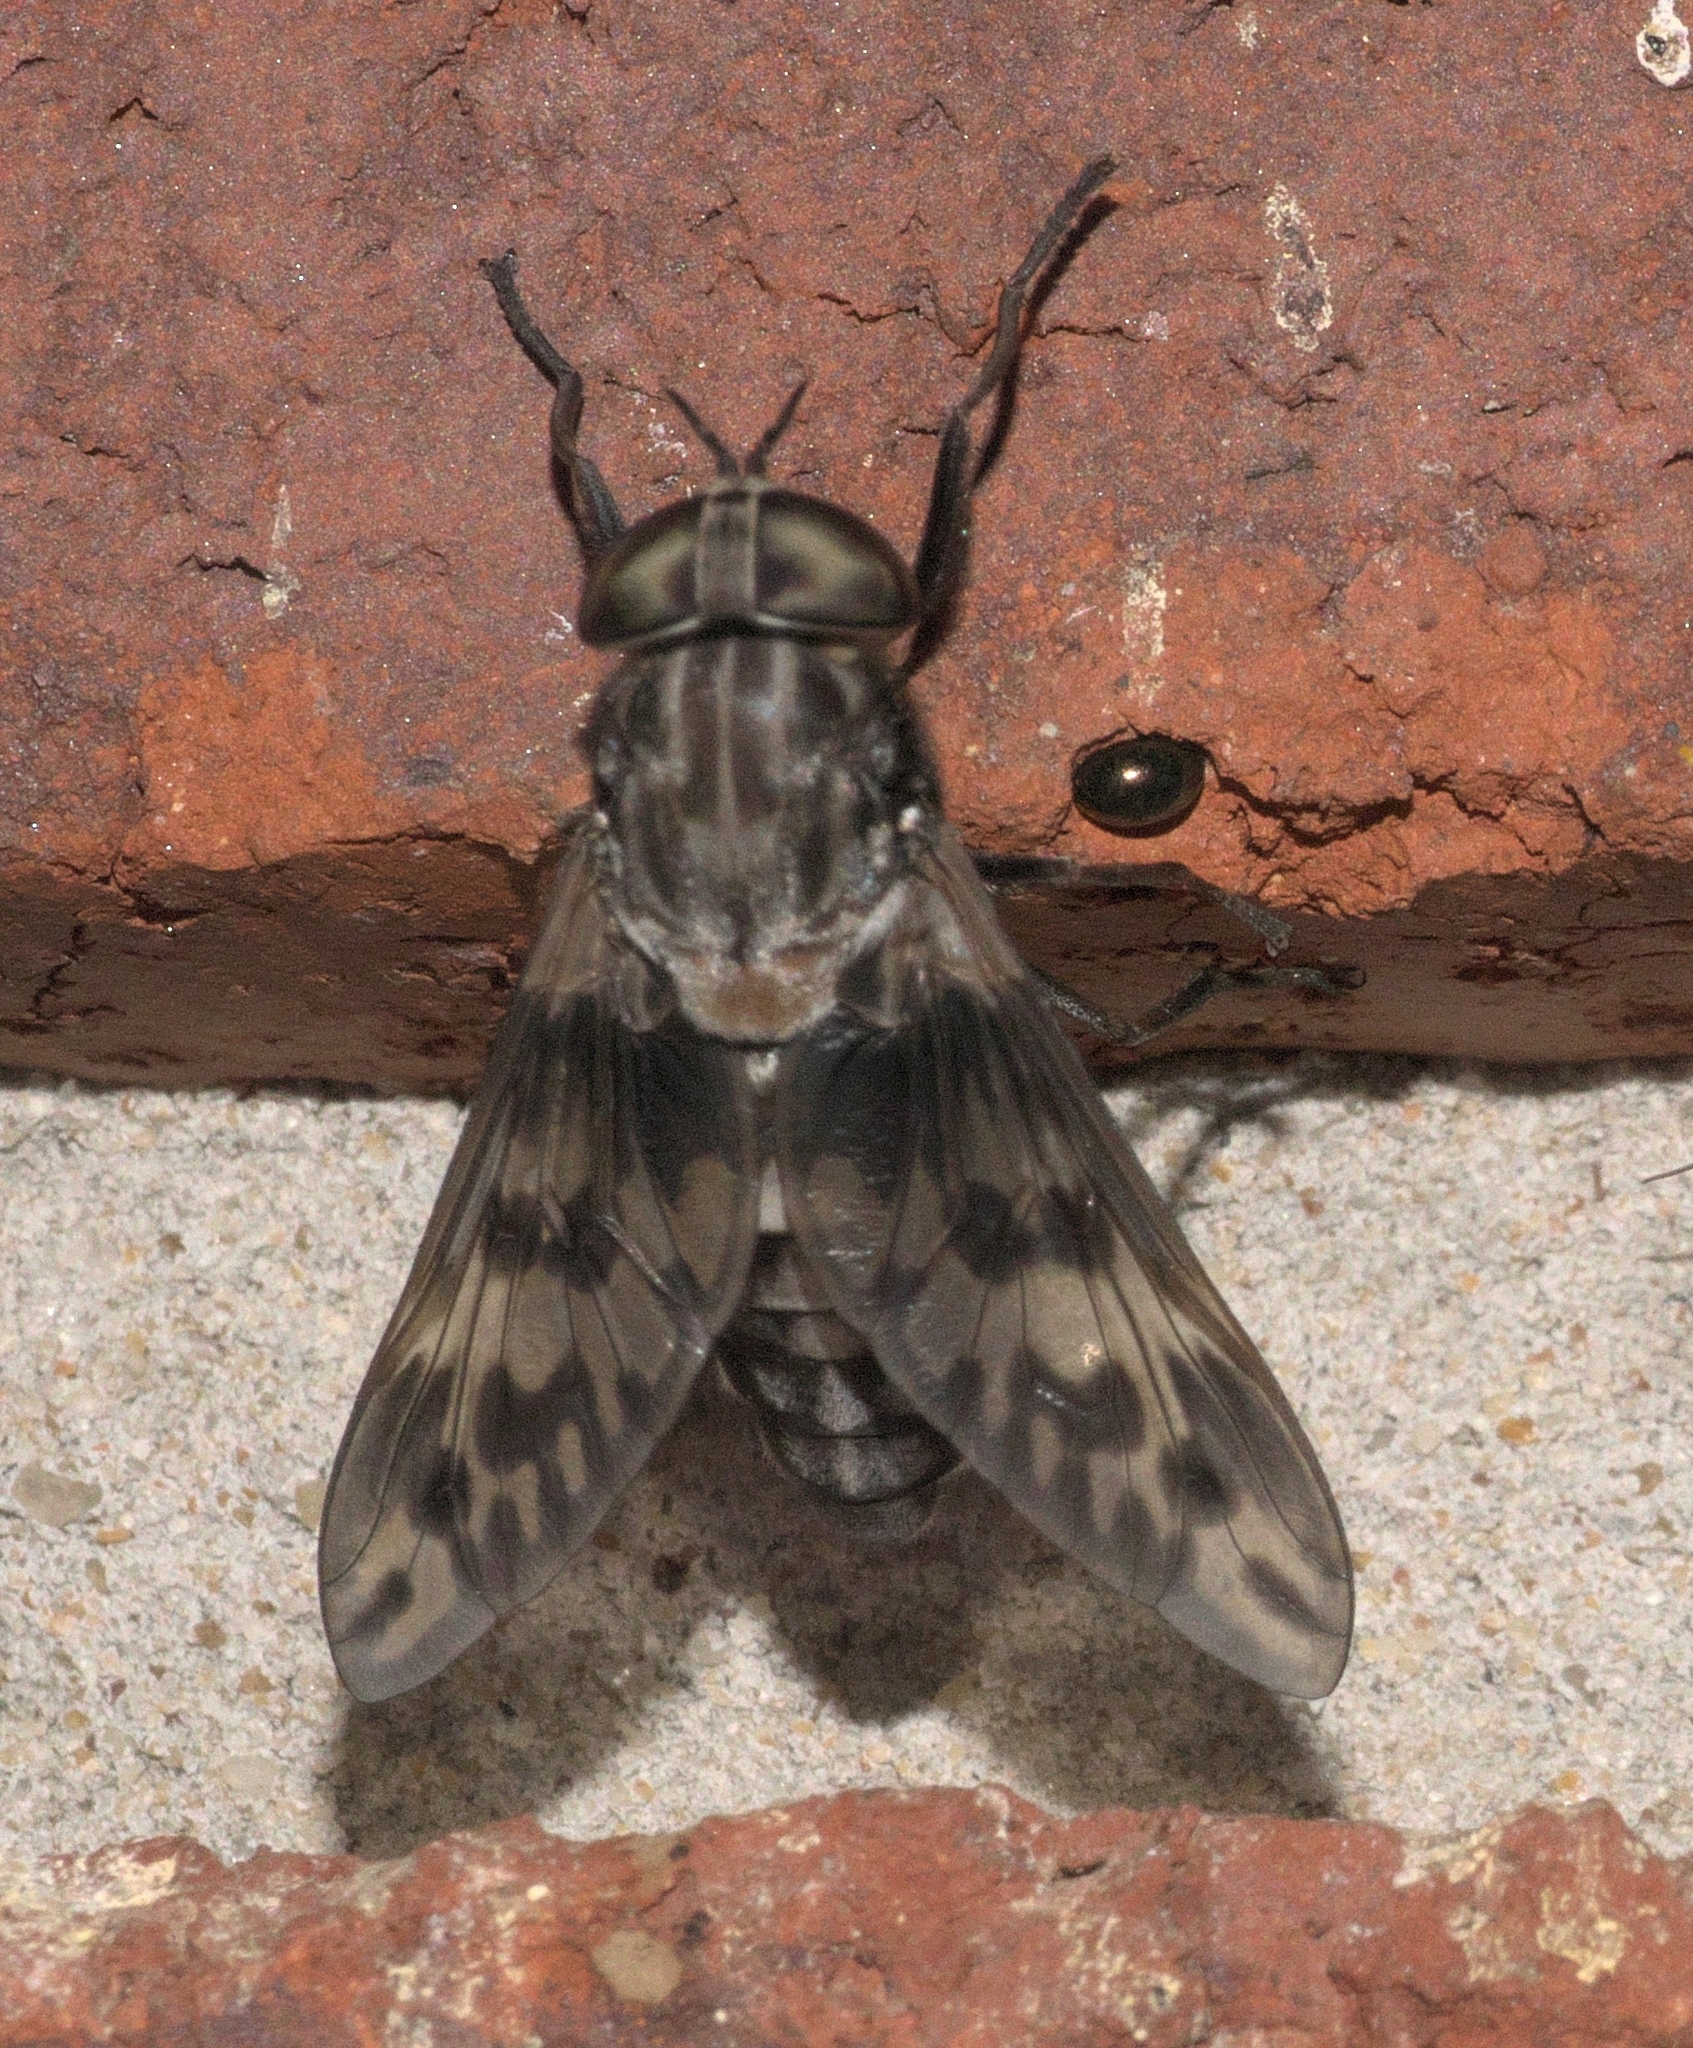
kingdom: Animalia
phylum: Arthropoda
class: Insecta
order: Diptera
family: Tabanidae
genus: Tabanus
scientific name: Tabanus venustus
